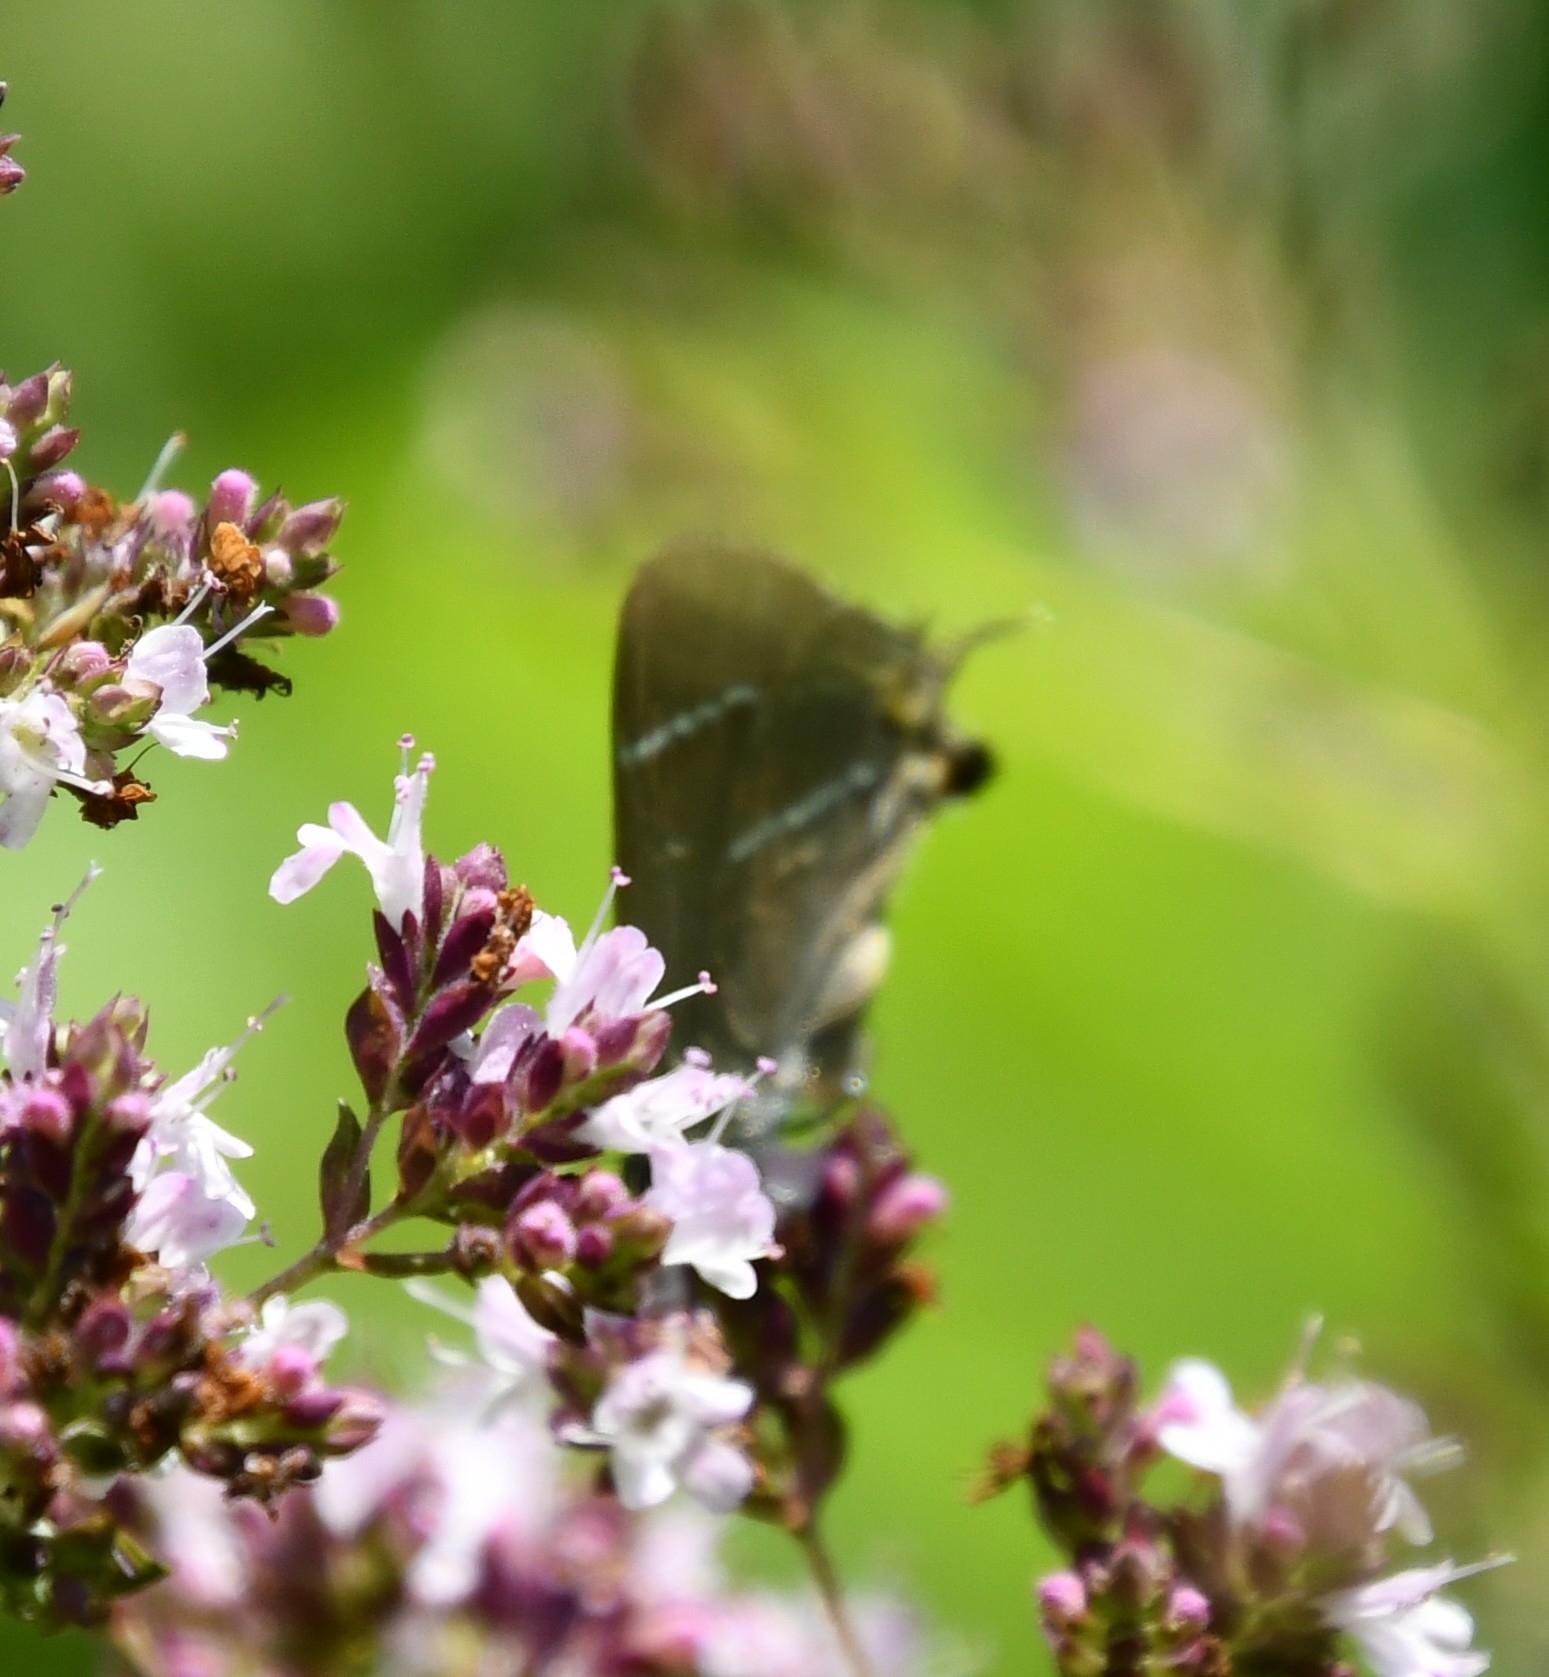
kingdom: Animalia
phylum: Arthropoda
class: Insecta
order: Lepidoptera
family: Lycaenidae
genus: Satyrium
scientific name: Satyrium w-album
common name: White-letter hairstreak
